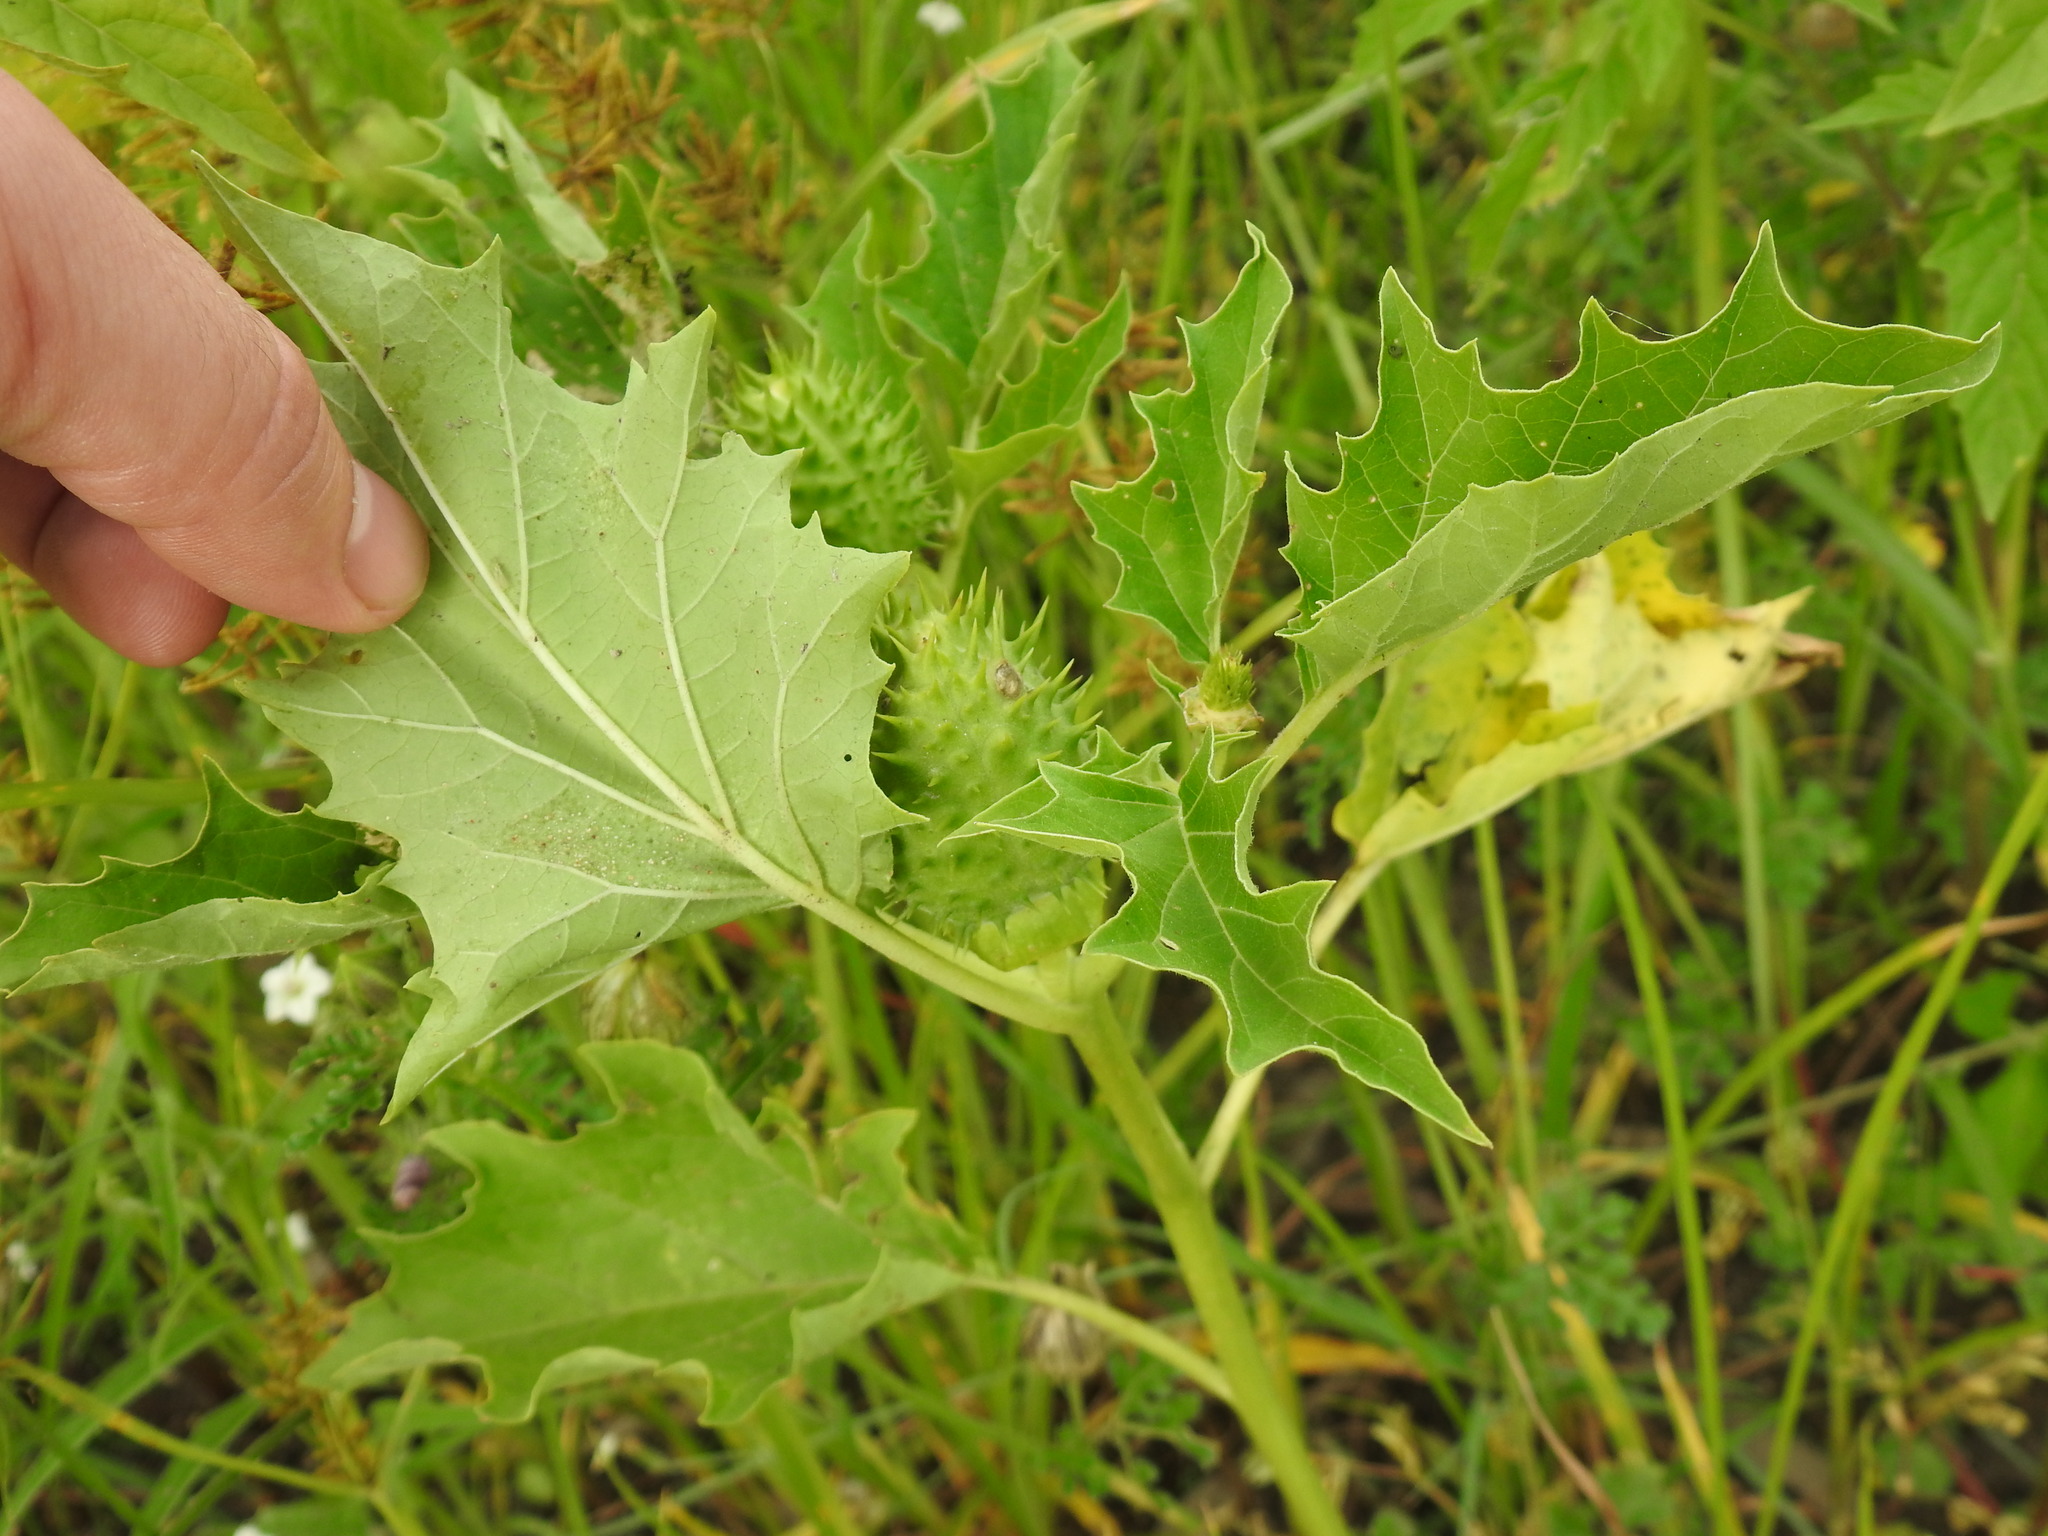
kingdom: Plantae
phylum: Tracheophyta
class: Magnoliopsida
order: Solanales
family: Solanaceae
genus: Datura
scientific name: Datura stramonium
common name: Thorn-apple
